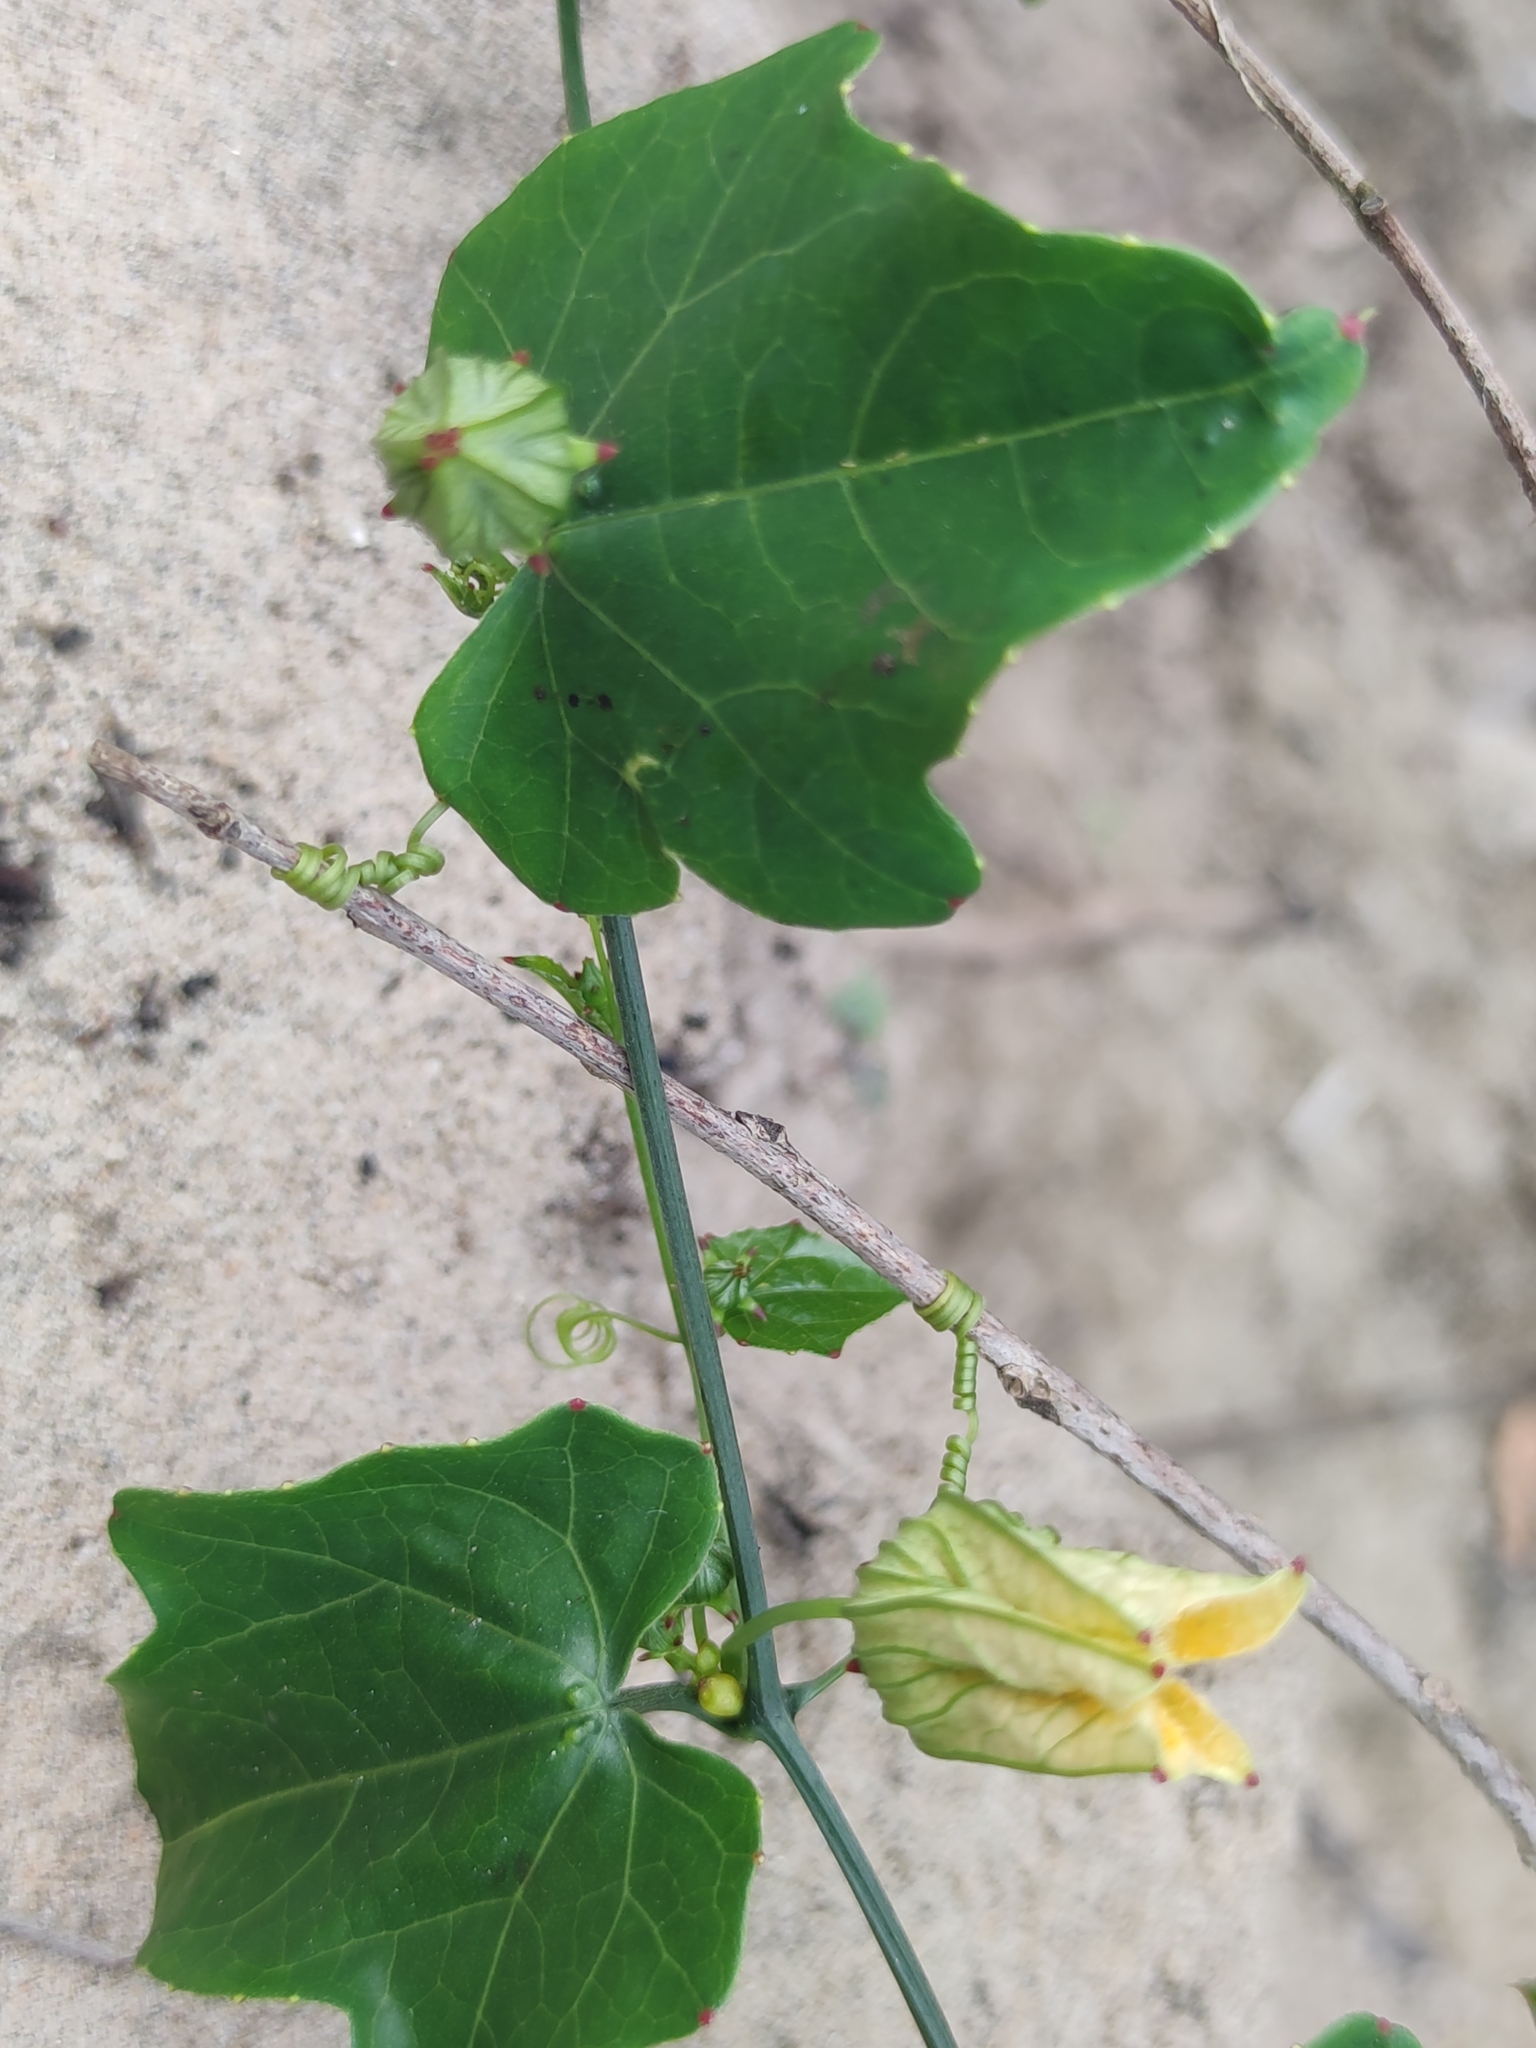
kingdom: Plantae
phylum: Tracheophyta
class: Magnoliopsida
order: Cucurbitales
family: Cucurbitaceae
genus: Coccinia
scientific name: Coccinia grandis
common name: Ivy gourd
